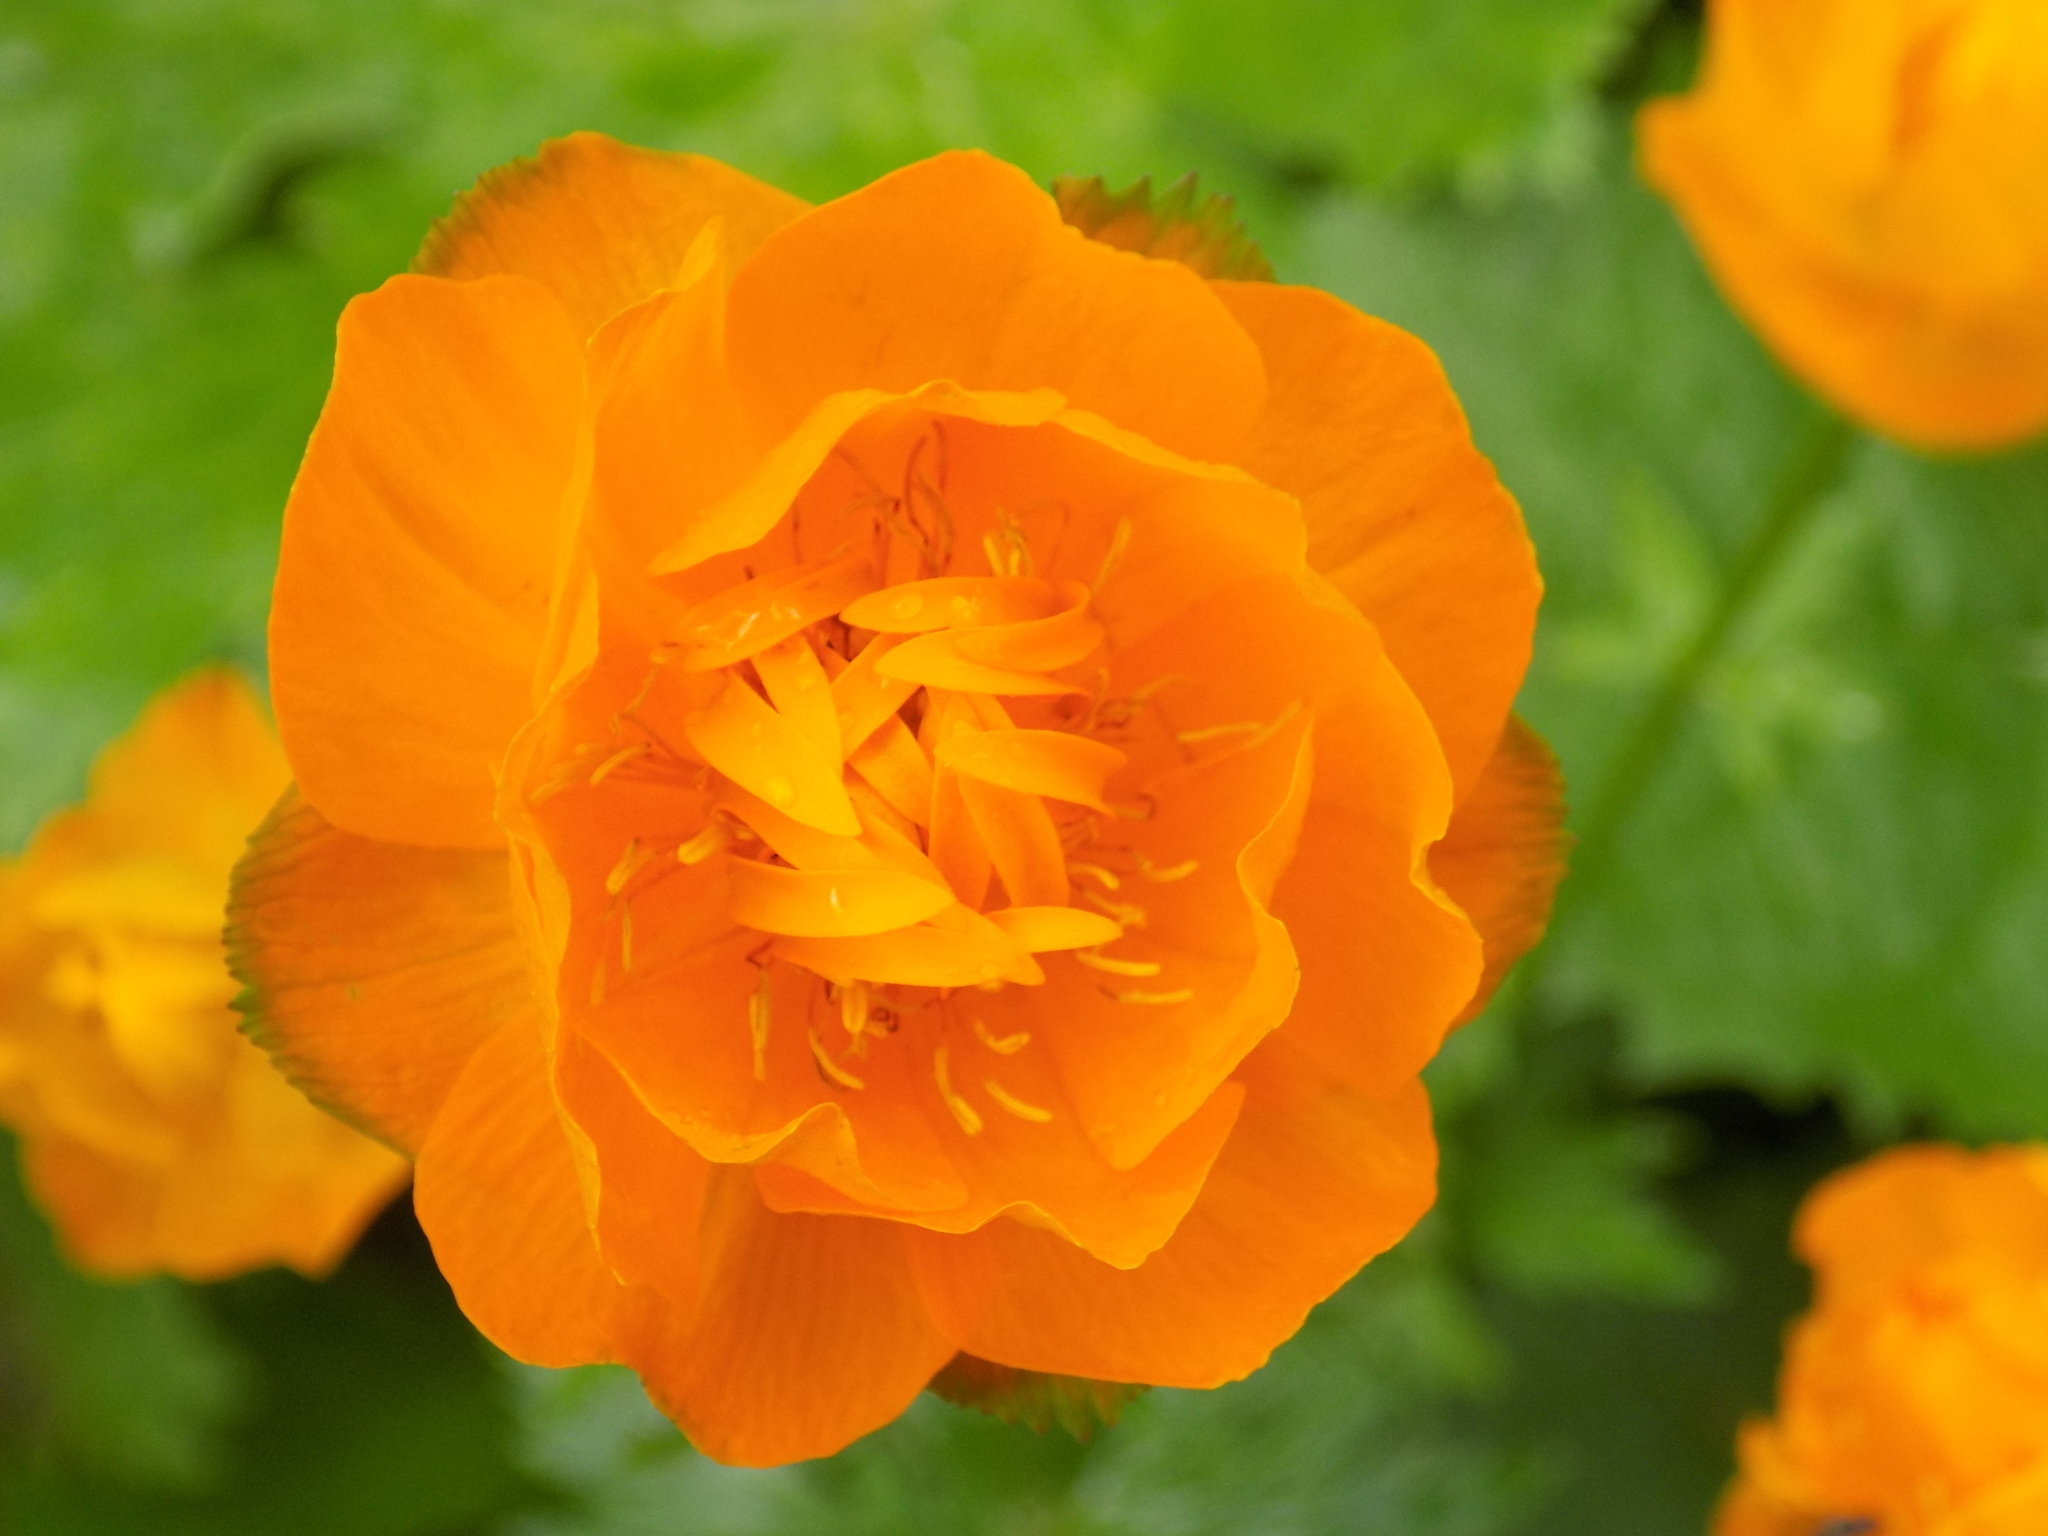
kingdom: Plantae
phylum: Tracheophyta
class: Magnoliopsida
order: Ranunculales
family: Ranunculaceae
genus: Trollius
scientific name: Trollius asiaticus
